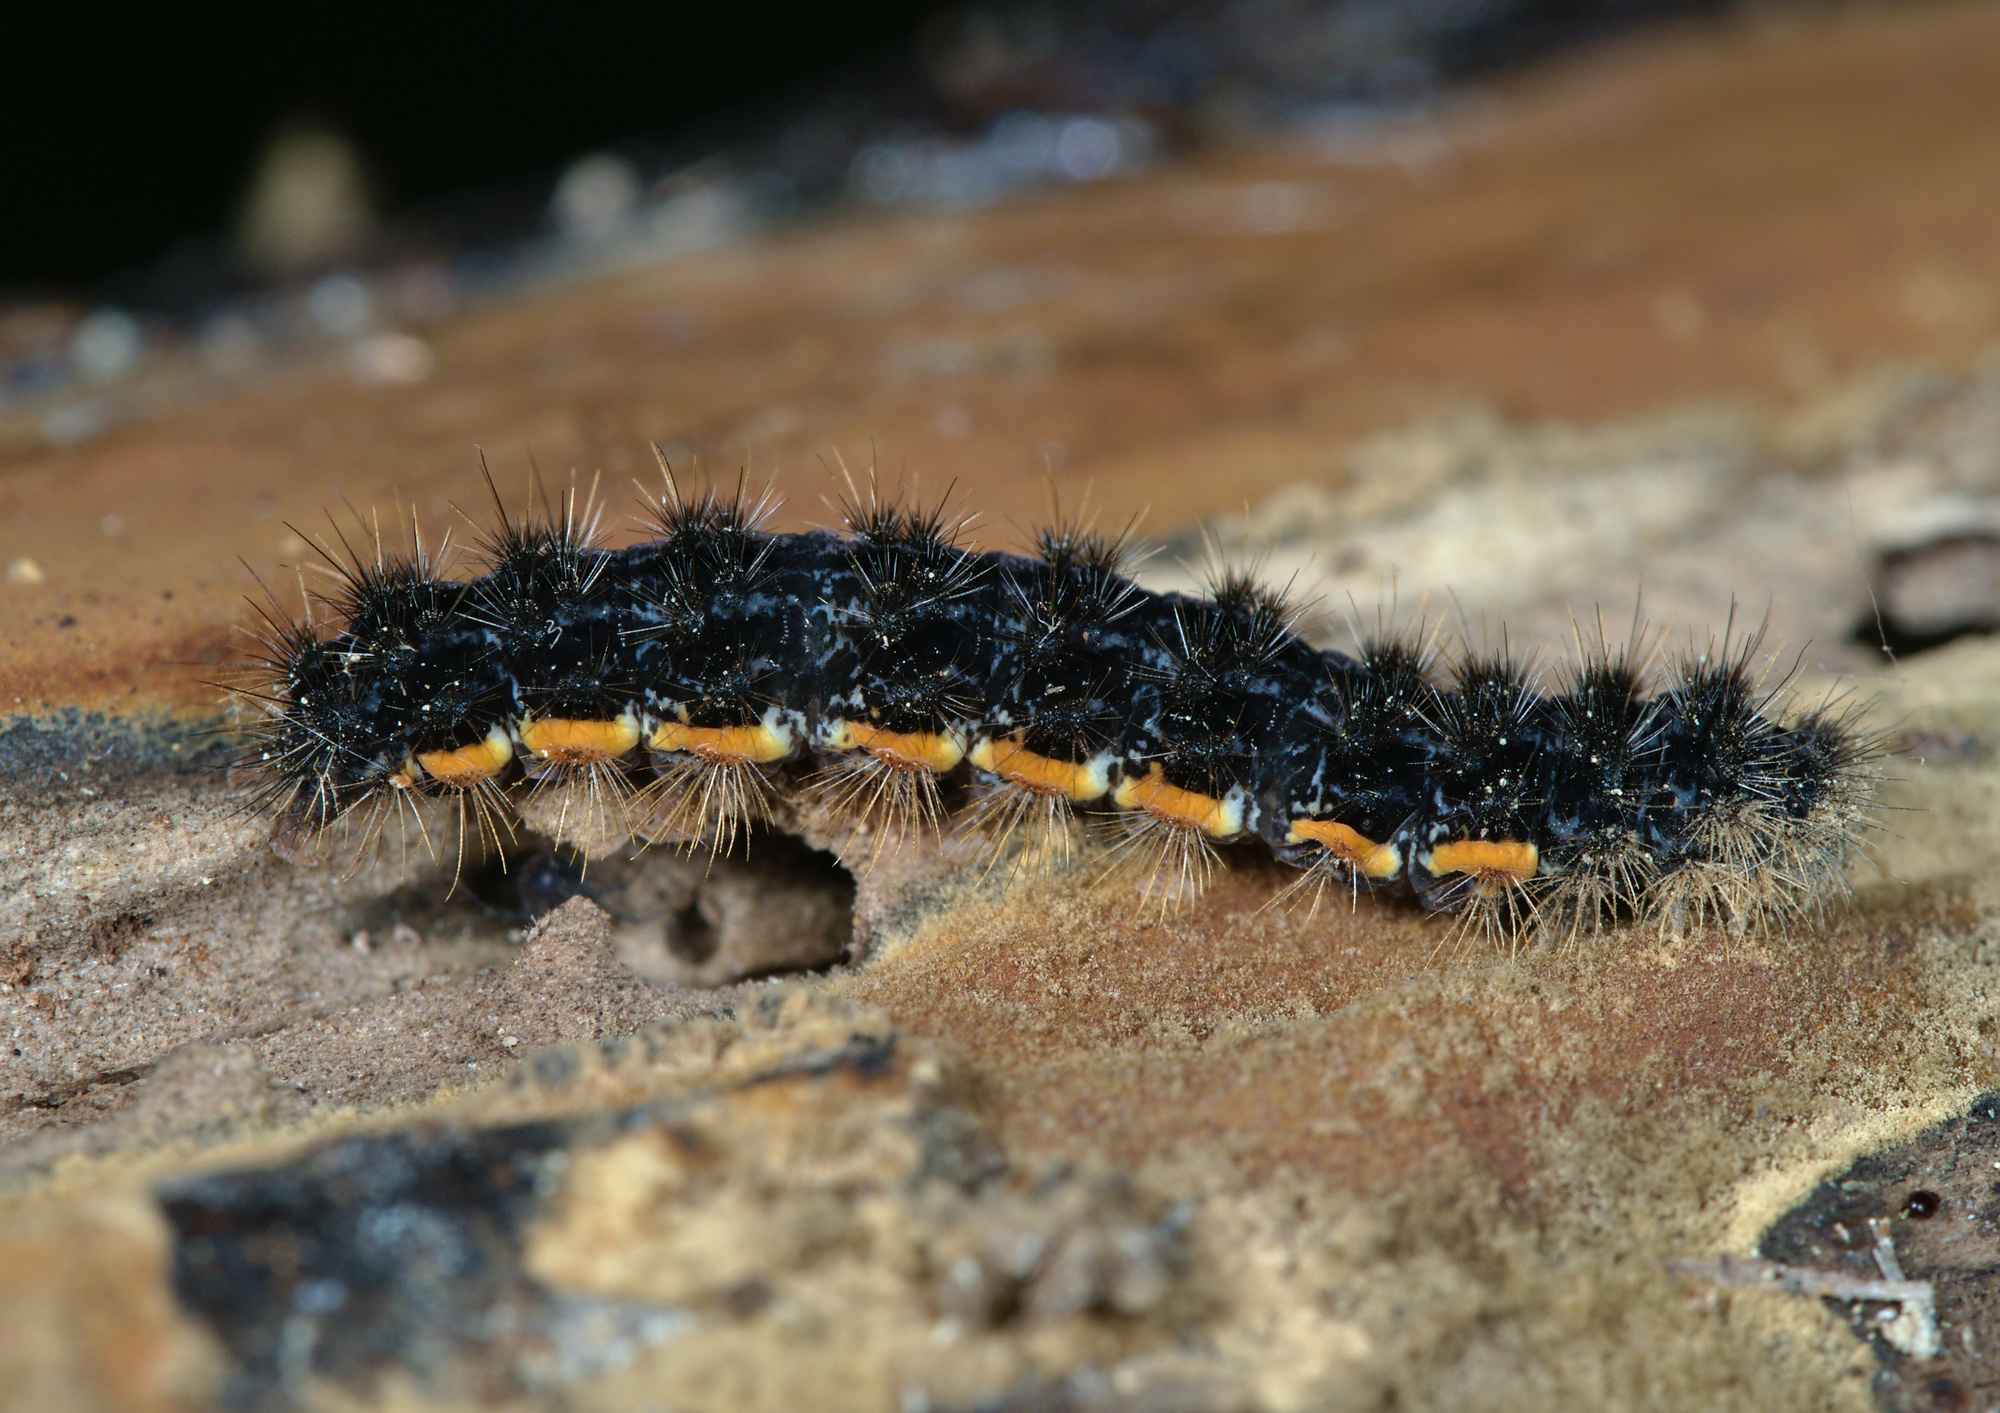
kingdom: Animalia
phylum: Arthropoda
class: Insecta
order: Lepidoptera
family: Erebidae
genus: Nyea
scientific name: Nyea lurideola
